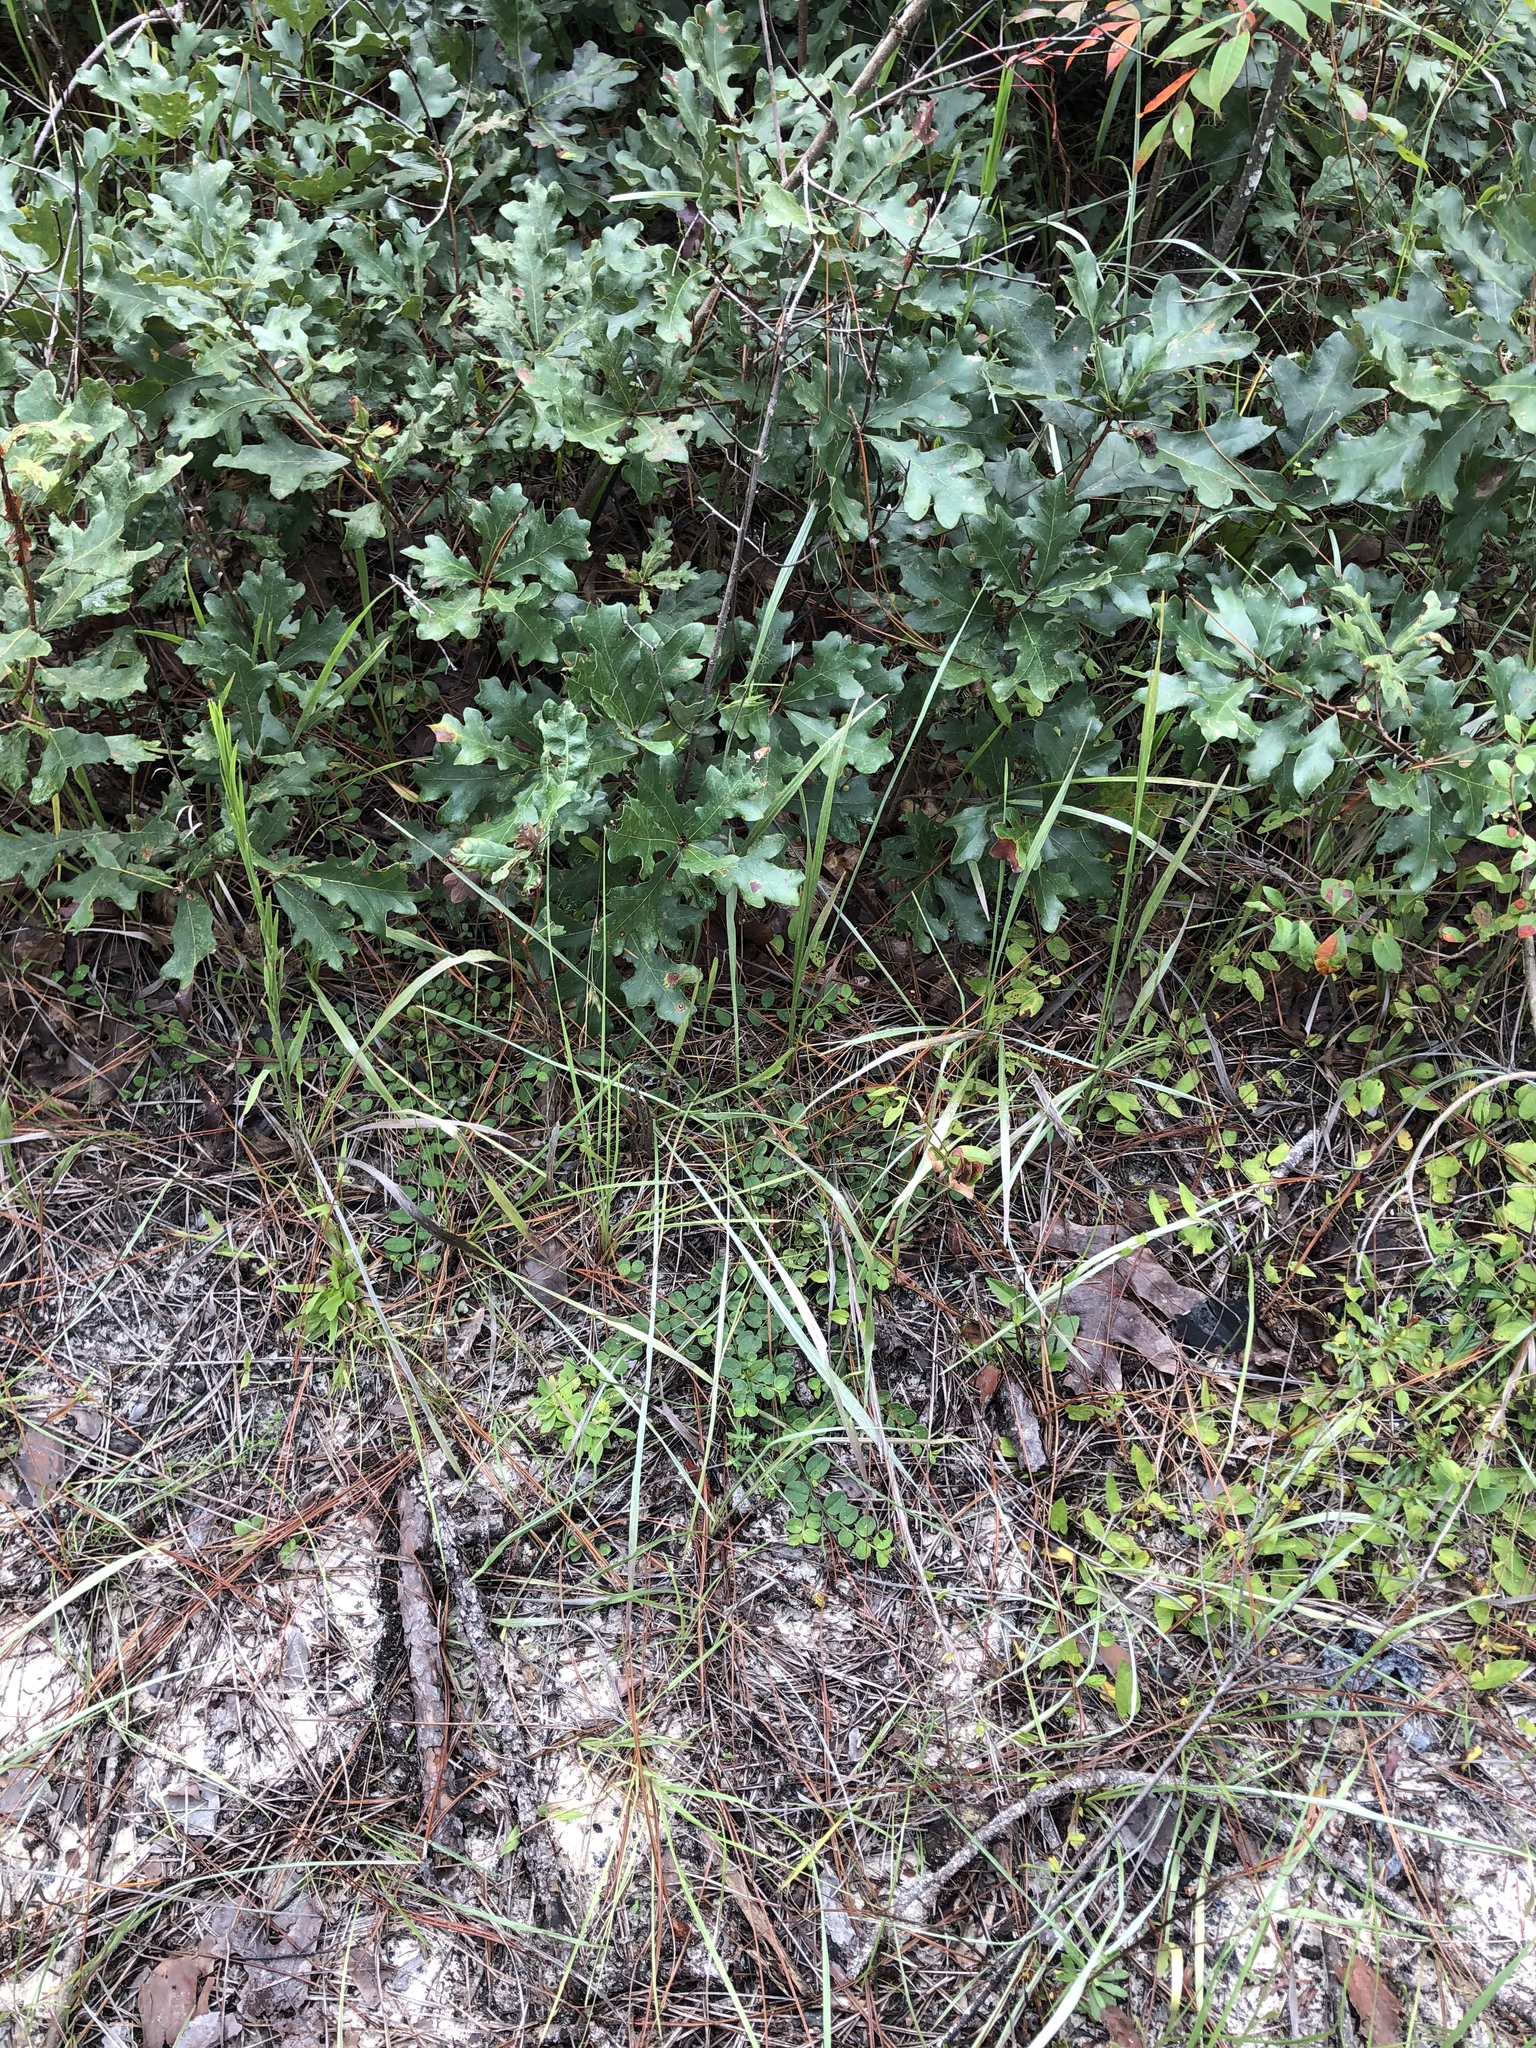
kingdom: Plantae
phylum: Tracheophyta
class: Magnoliopsida
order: Fabales
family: Fabaceae
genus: Crotalaria
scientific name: Crotalaria rotundifolia
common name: Prostrate rattlebox
